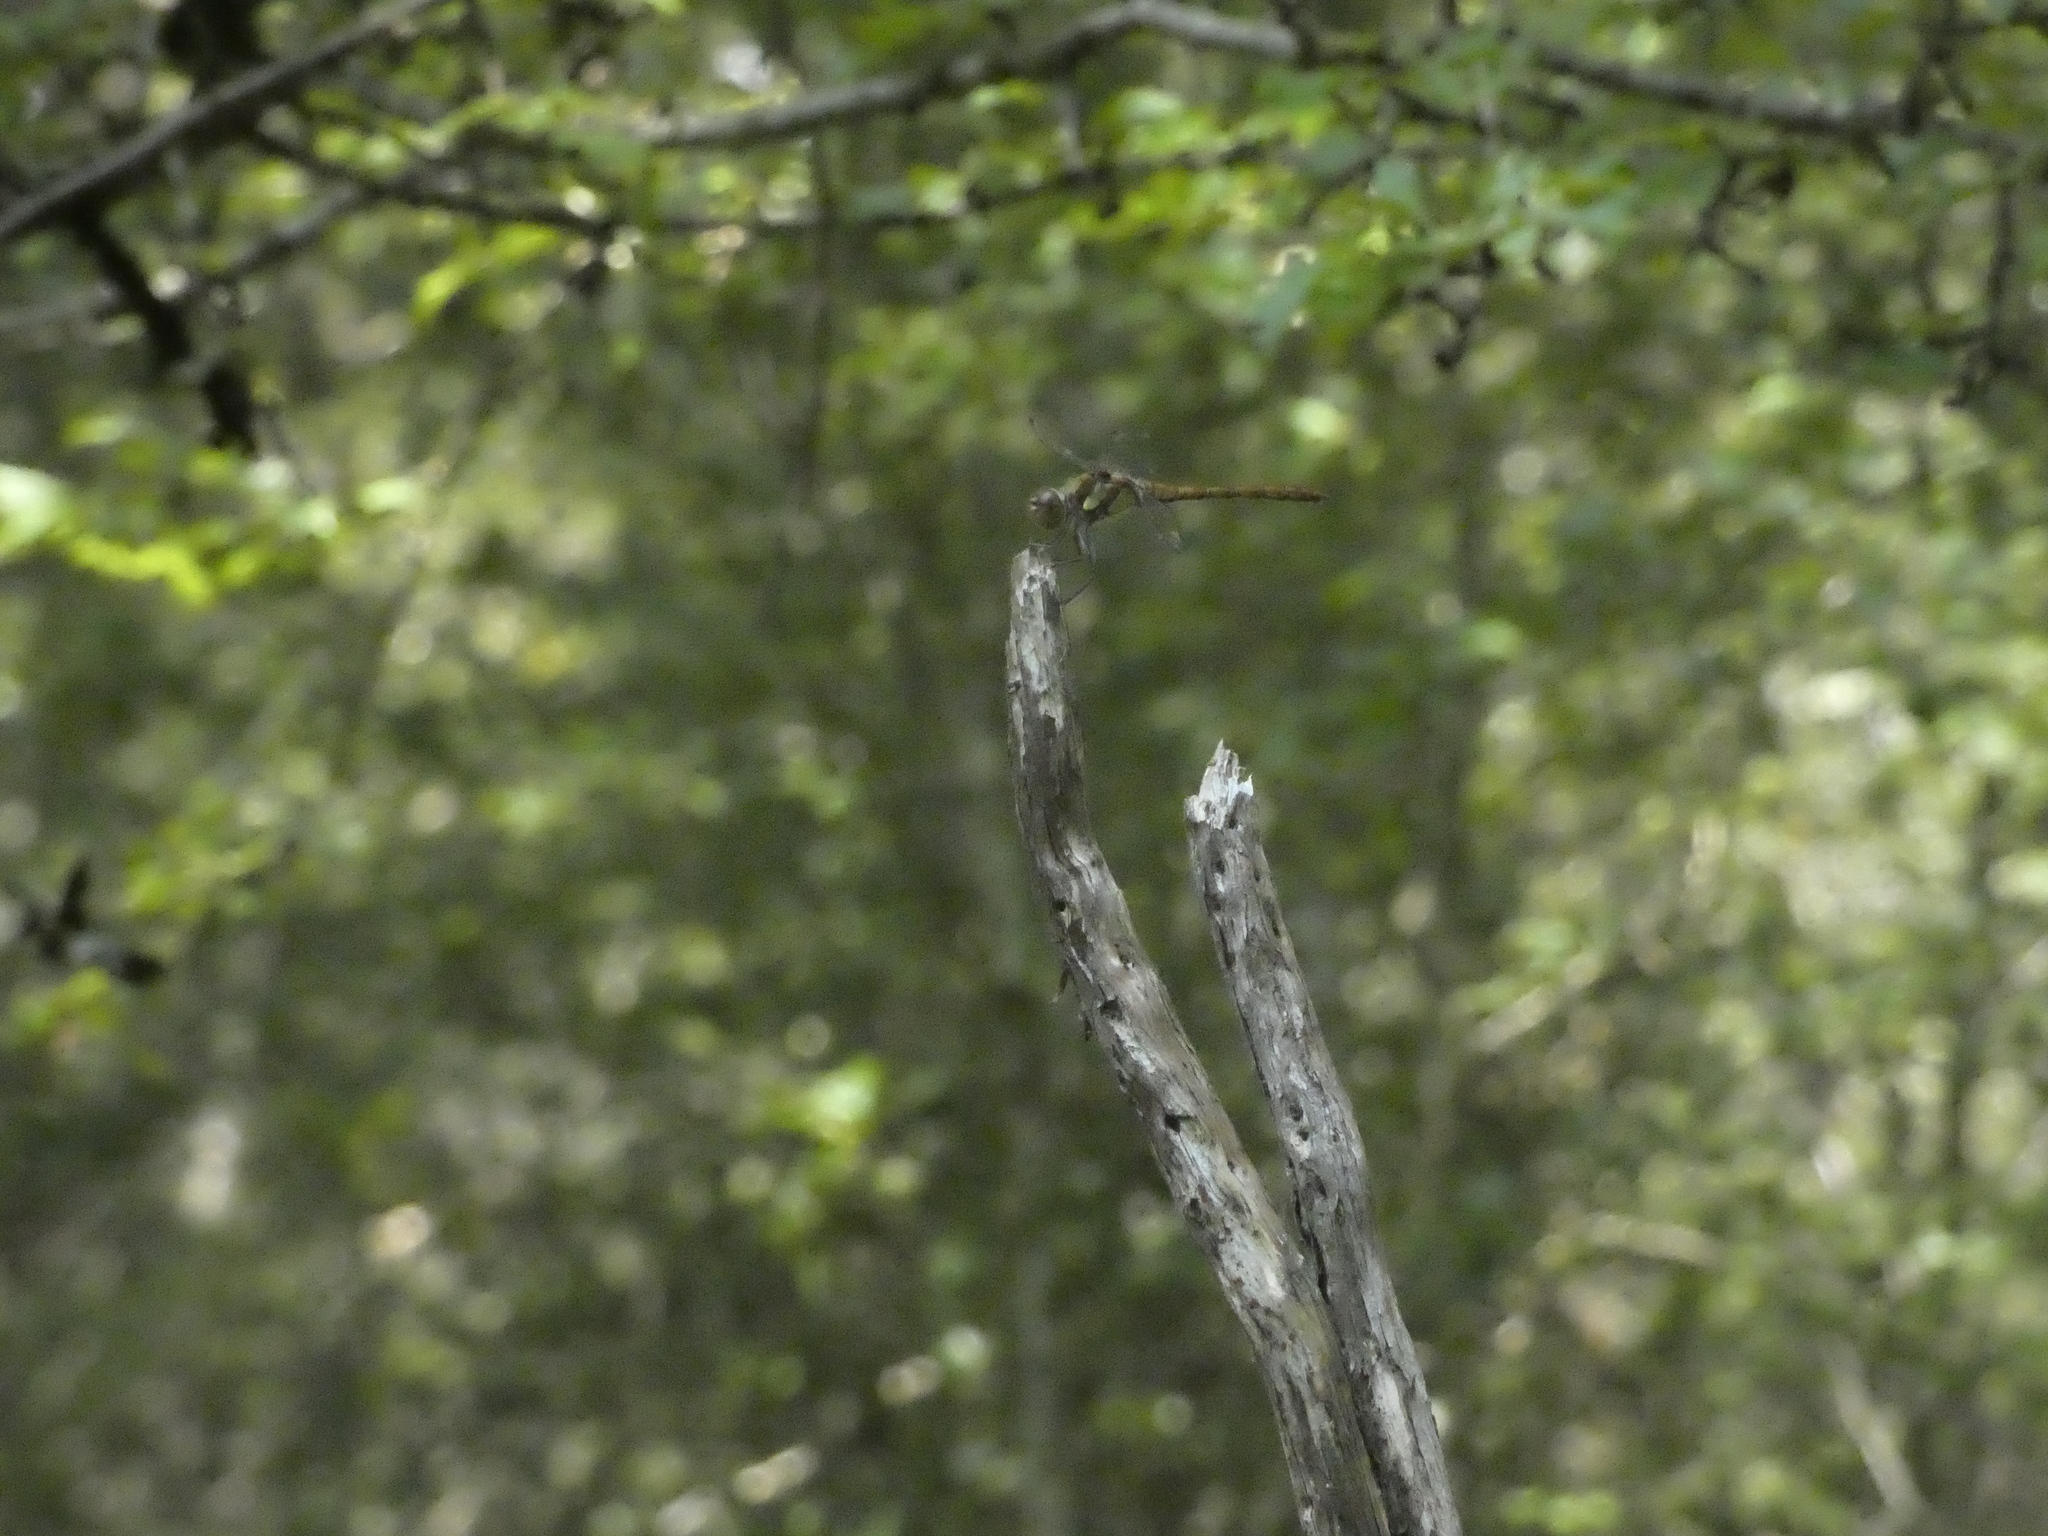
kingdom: Animalia
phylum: Arthropoda
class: Insecta
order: Odonata
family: Libellulidae
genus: Sympetrum
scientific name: Sympetrum striolatum
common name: Common darter
